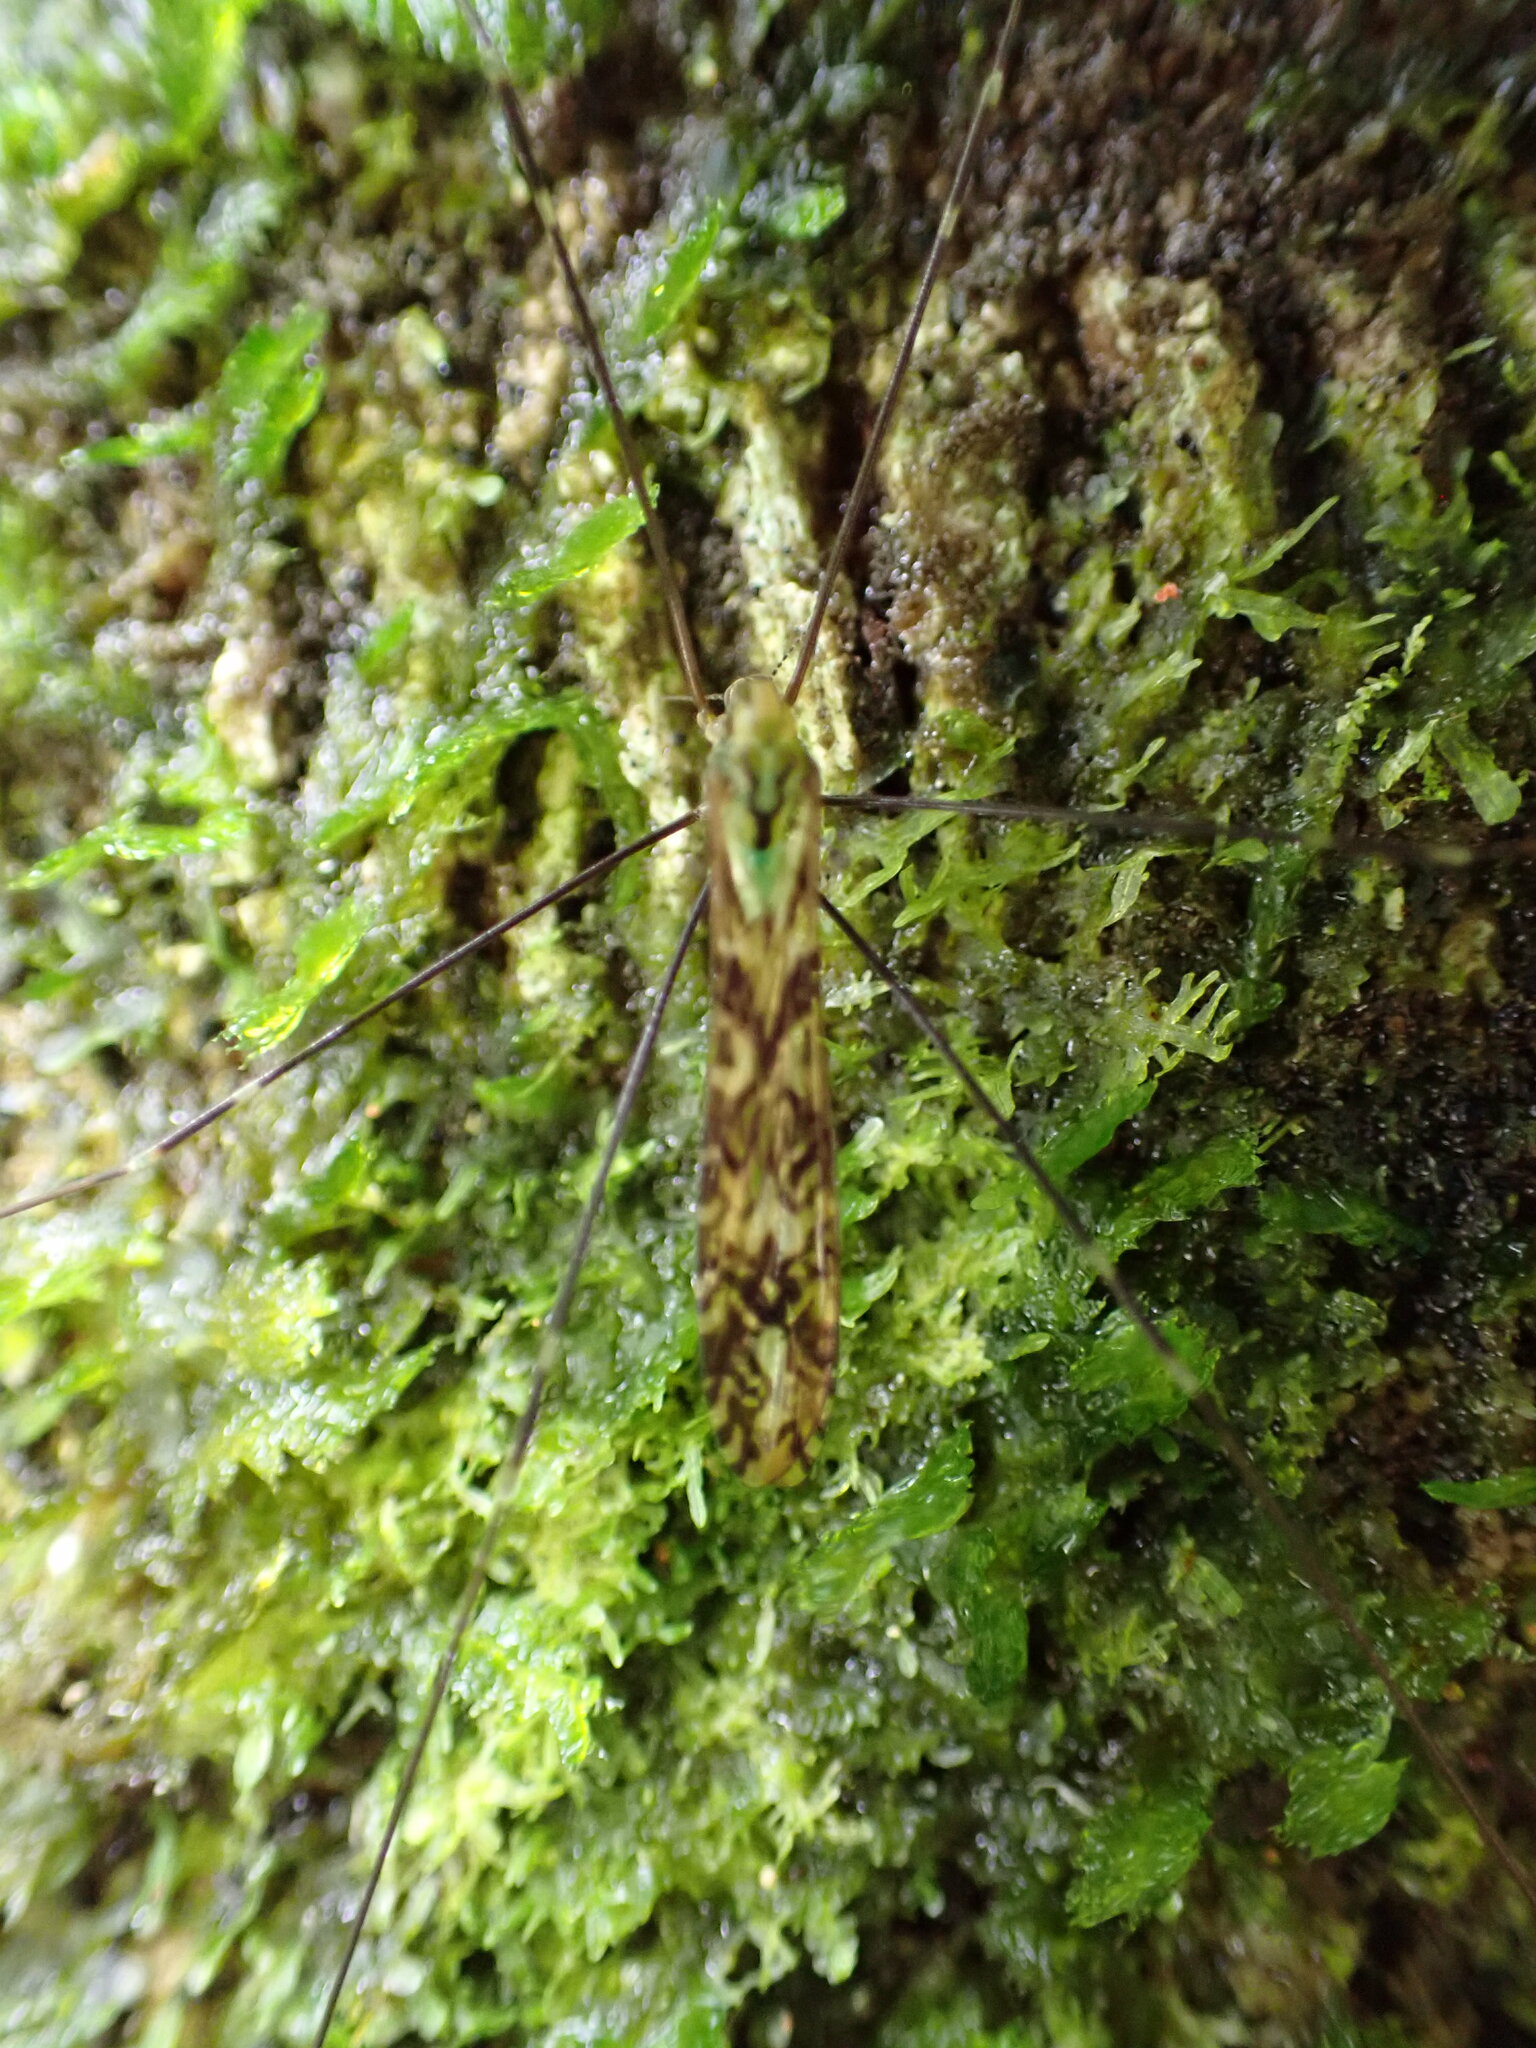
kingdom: Animalia
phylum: Arthropoda
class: Insecta
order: Diptera
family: Limoniidae
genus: Discobola
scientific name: Discobola tessellata
